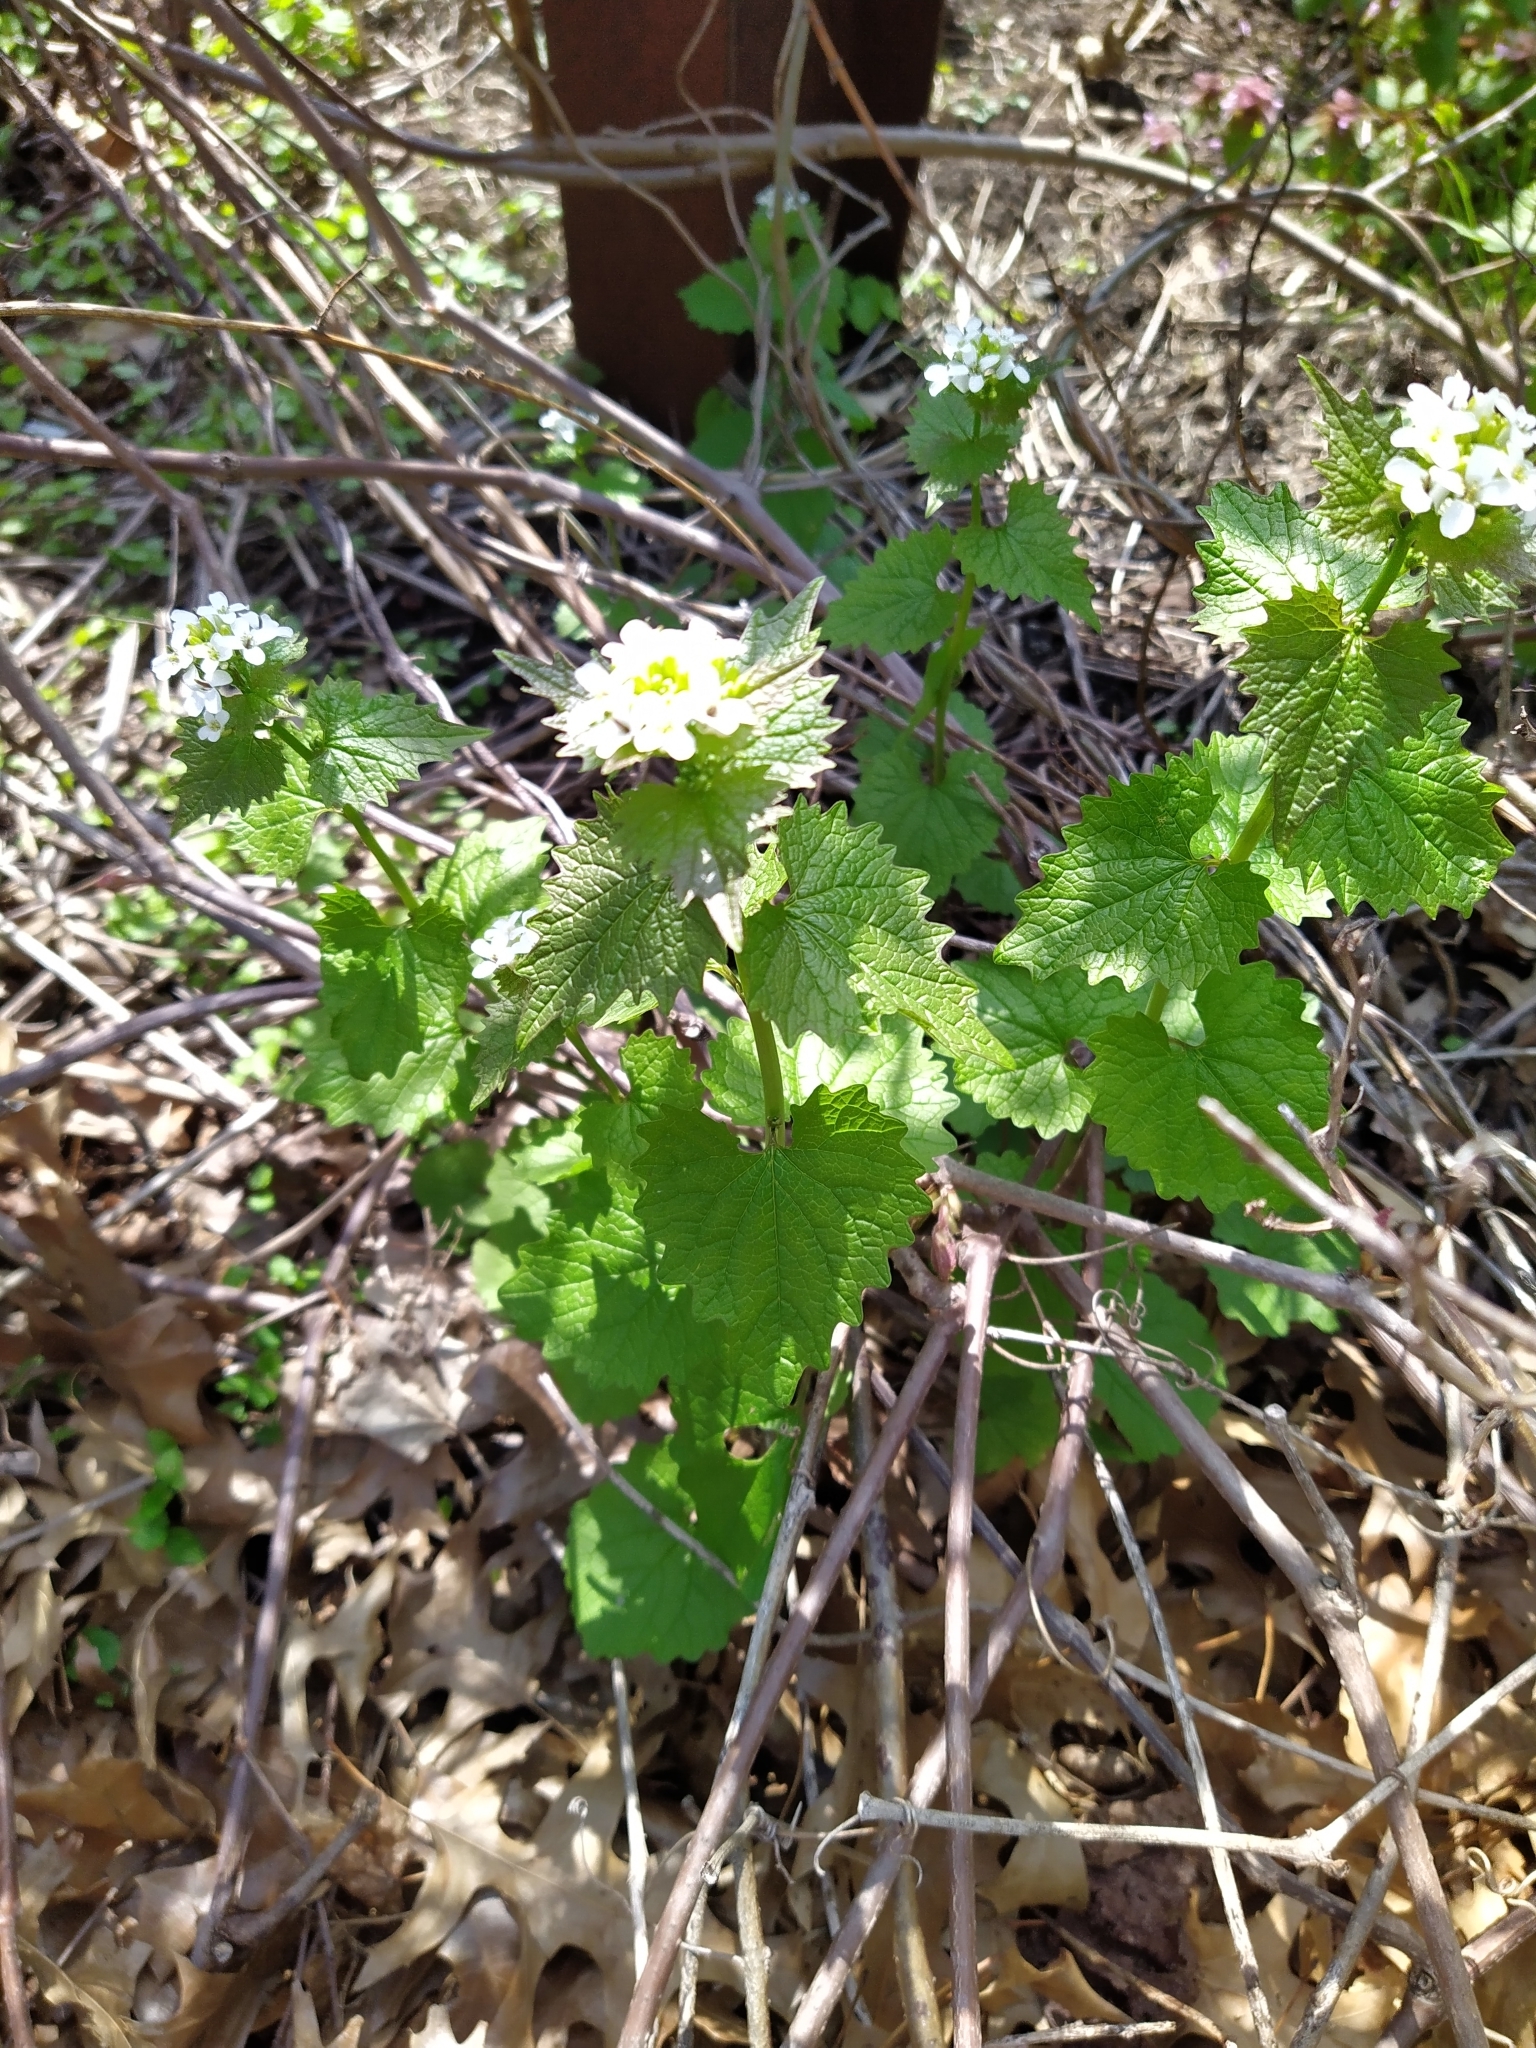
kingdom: Plantae
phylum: Tracheophyta
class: Magnoliopsida
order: Brassicales
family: Brassicaceae
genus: Alliaria
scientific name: Alliaria petiolata
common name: Garlic mustard
